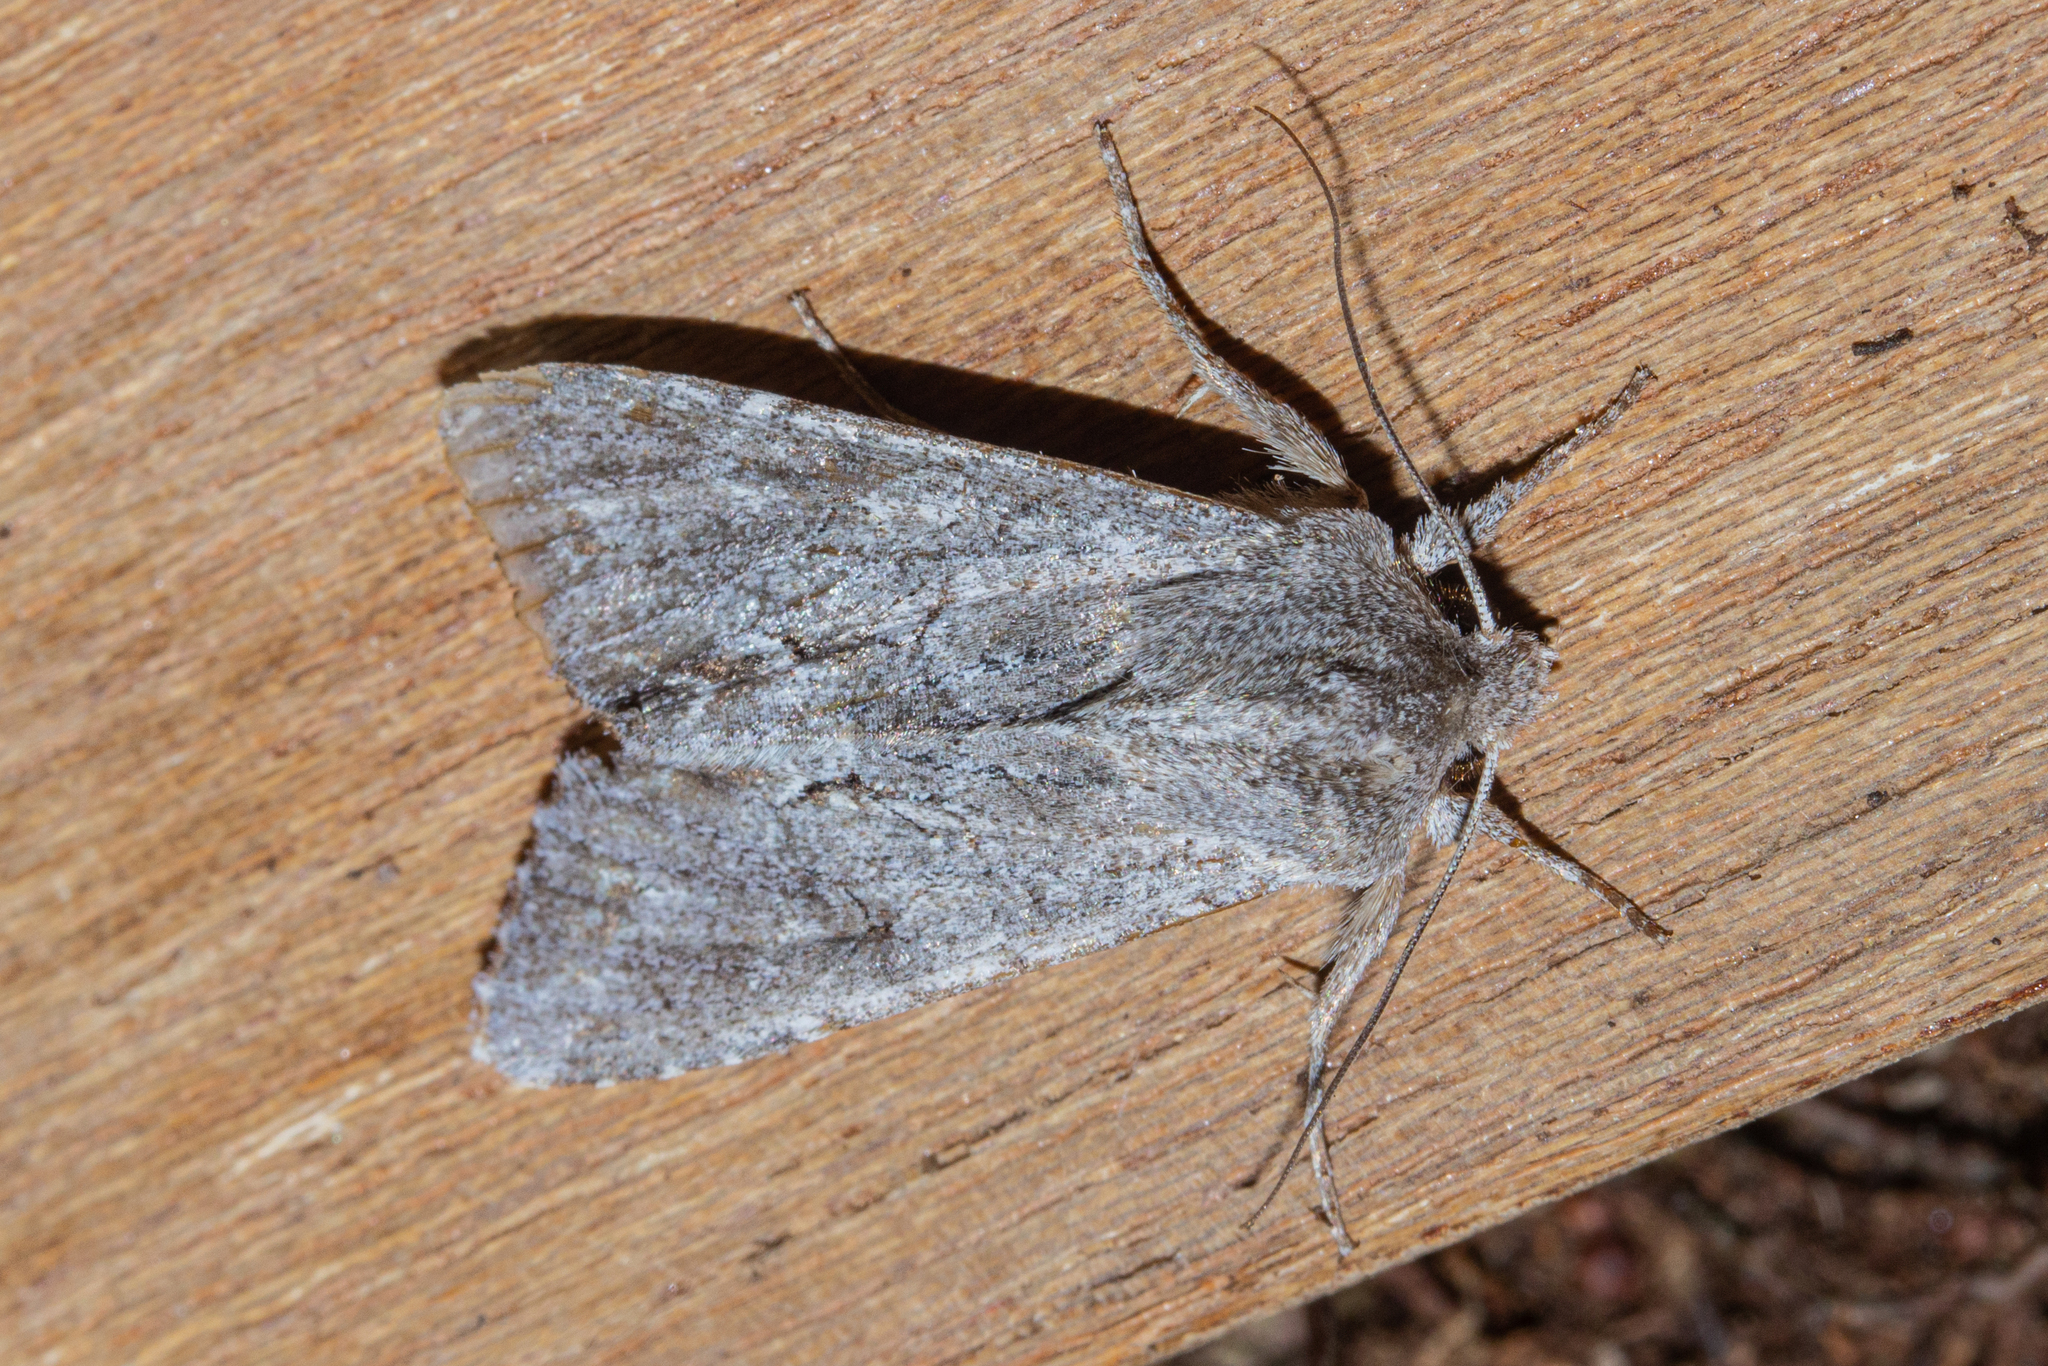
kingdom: Animalia
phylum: Arthropoda
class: Insecta
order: Lepidoptera
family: Noctuidae
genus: Ichneutica
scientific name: Ichneutica
